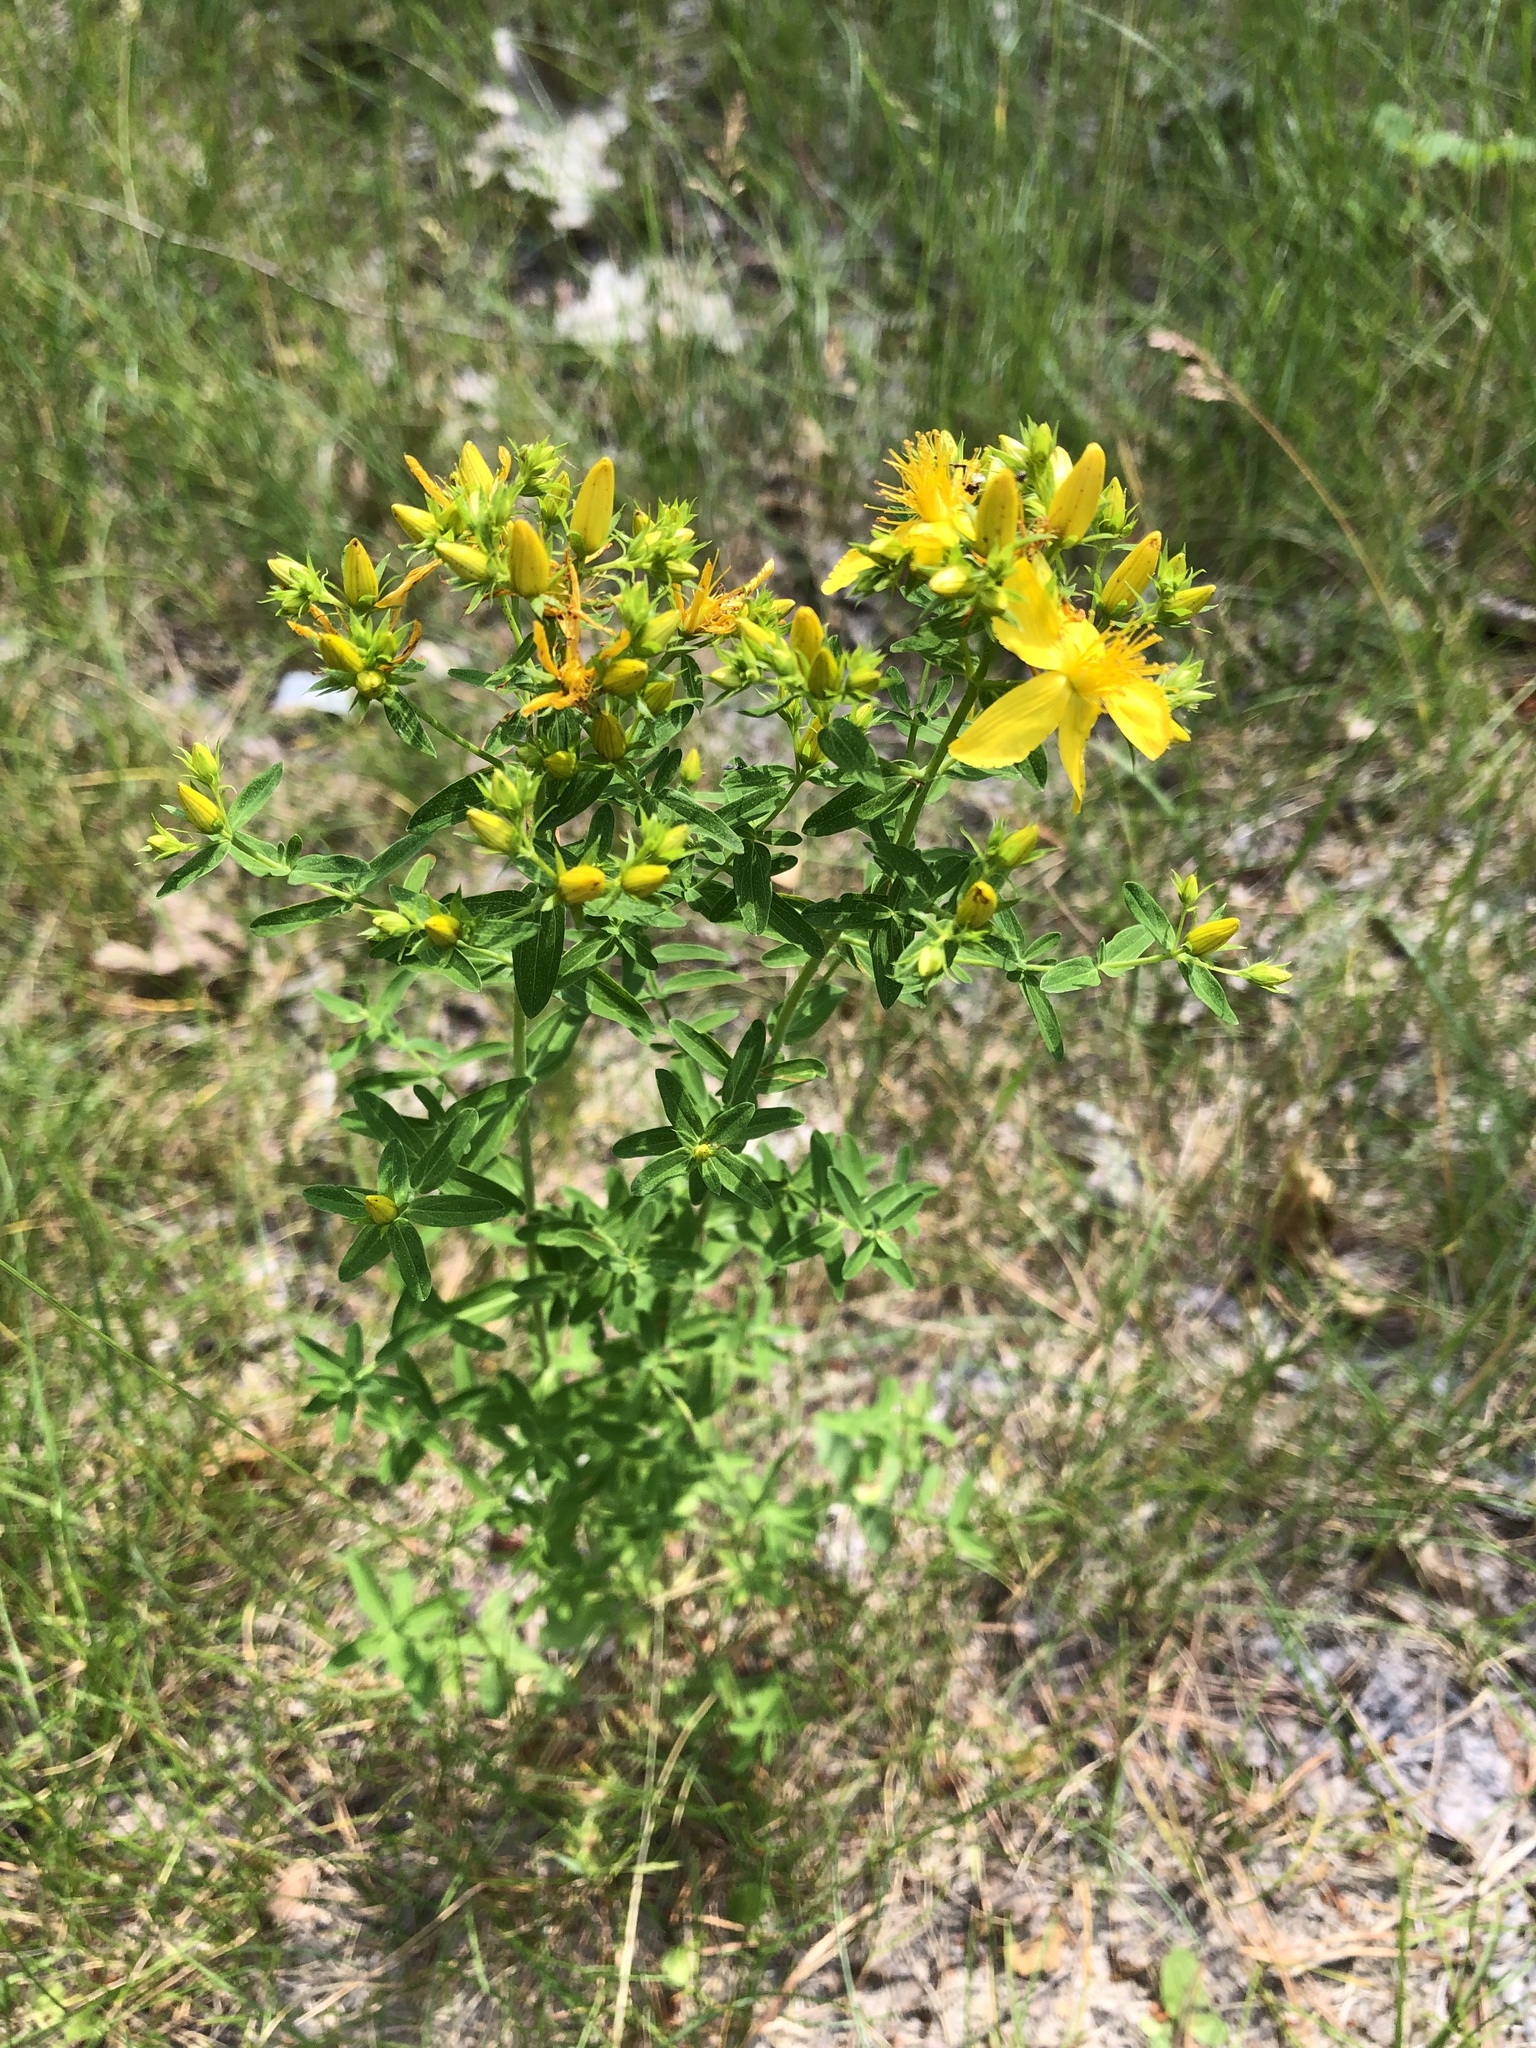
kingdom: Plantae
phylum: Tracheophyta
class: Magnoliopsida
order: Malpighiales
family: Hypericaceae
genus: Hypericum
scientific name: Hypericum perforatum
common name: Common st. johnswort
